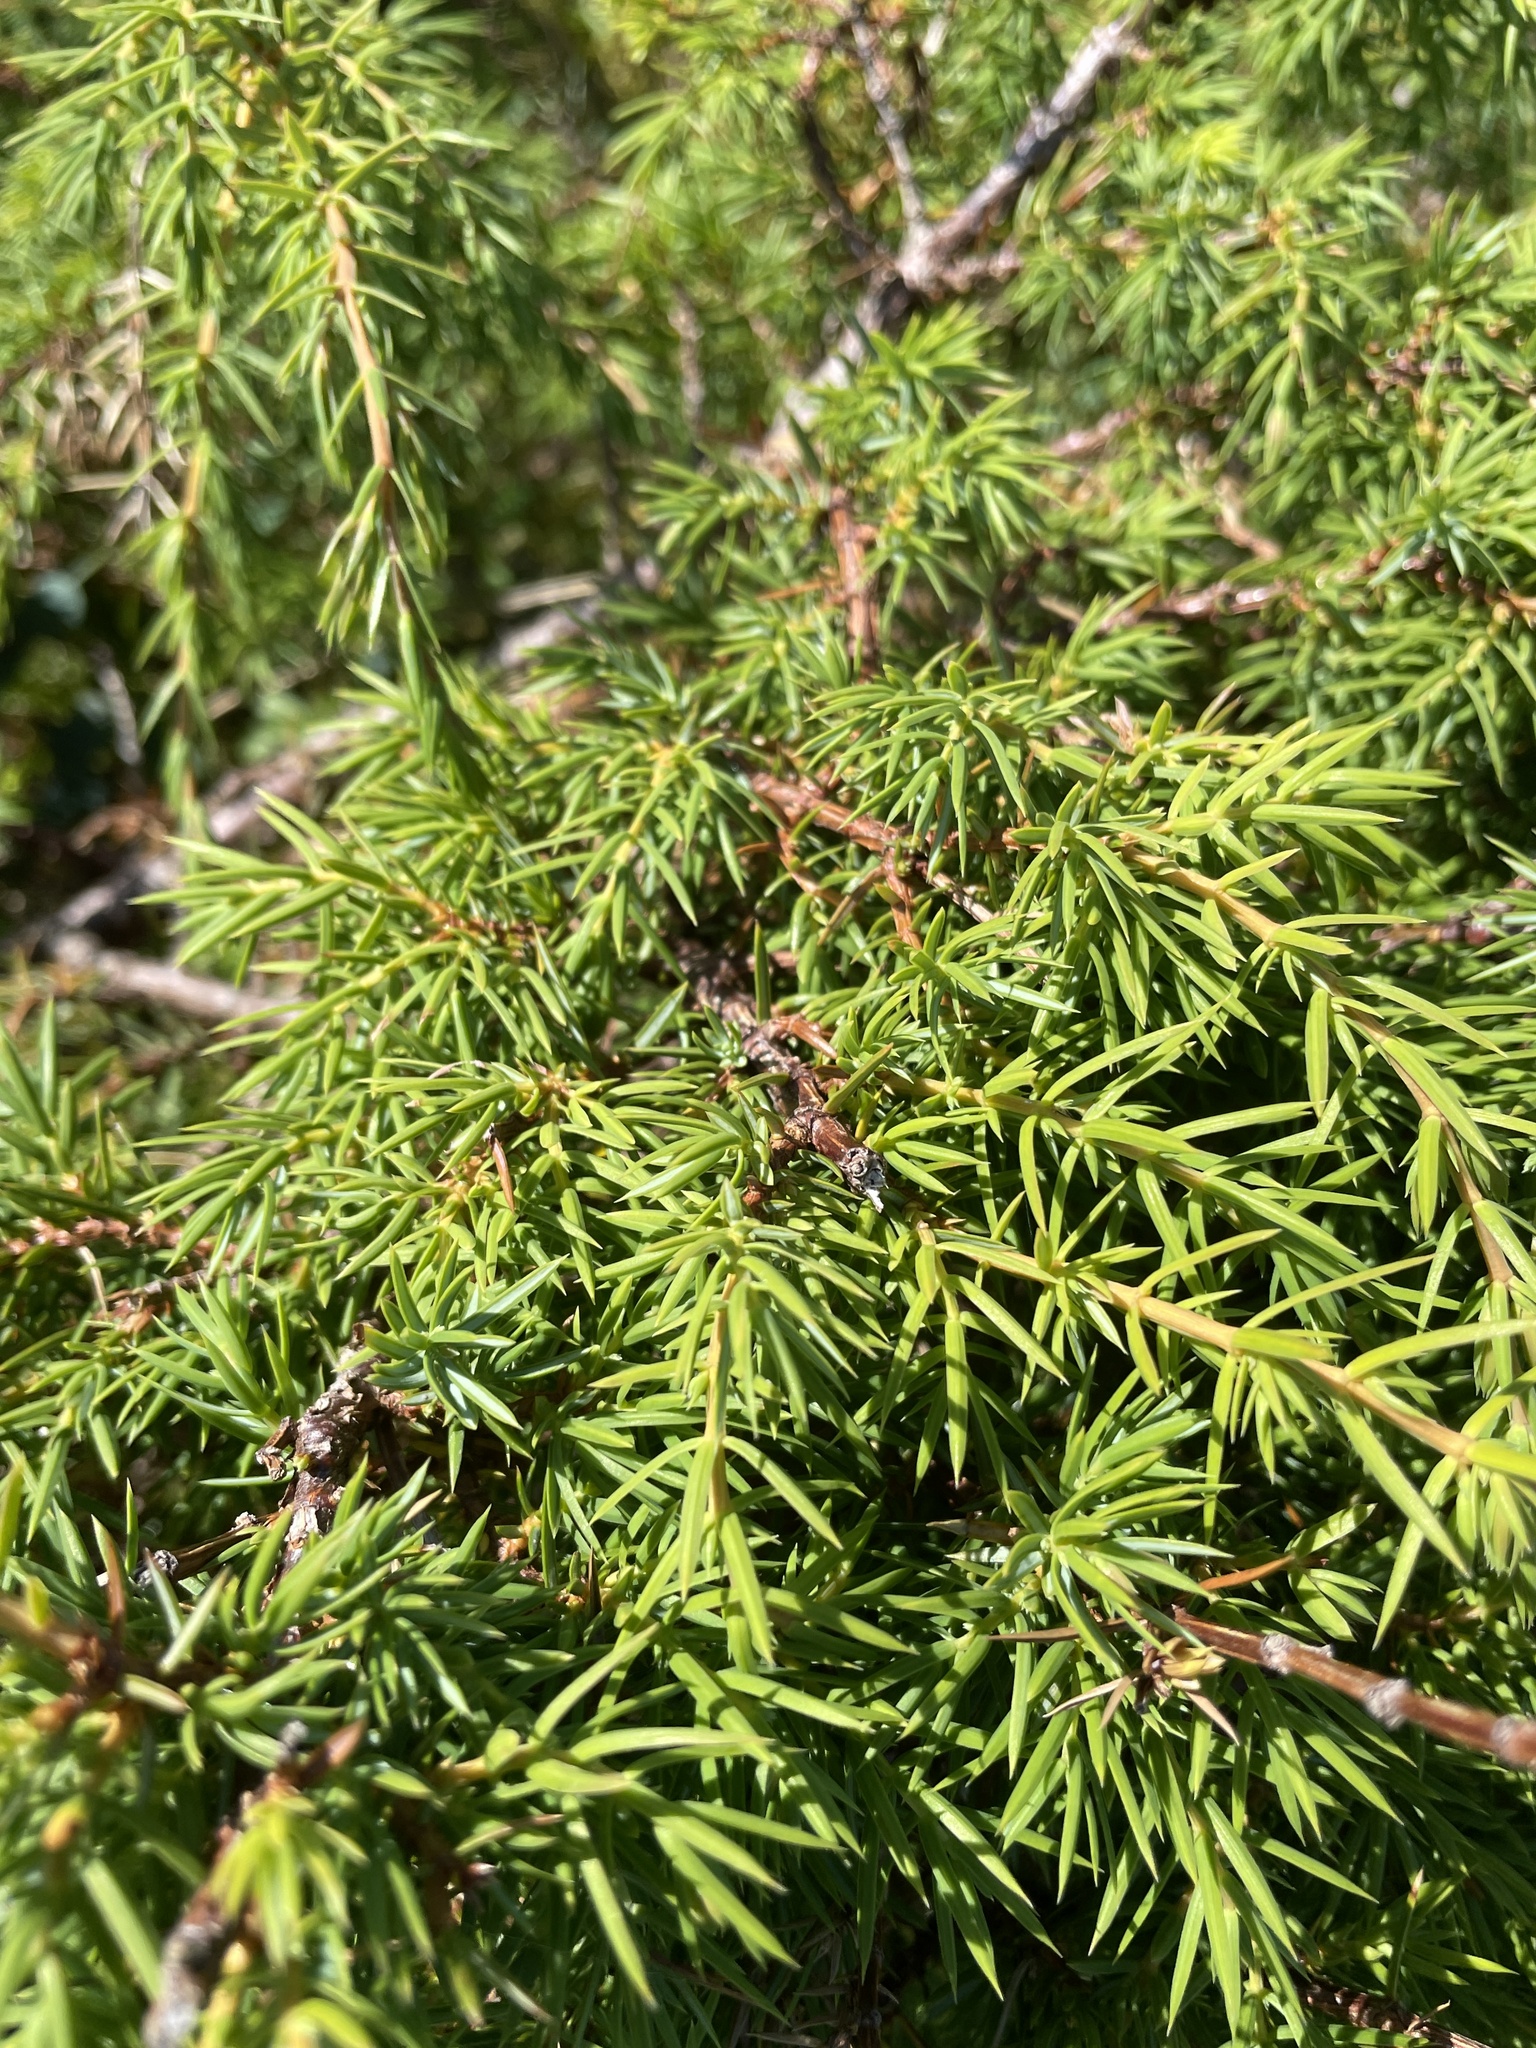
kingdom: Plantae
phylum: Tracheophyta
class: Pinopsida
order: Pinales
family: Cupressaceae
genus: Juniperus
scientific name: Juniperus communis
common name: Common juniper
